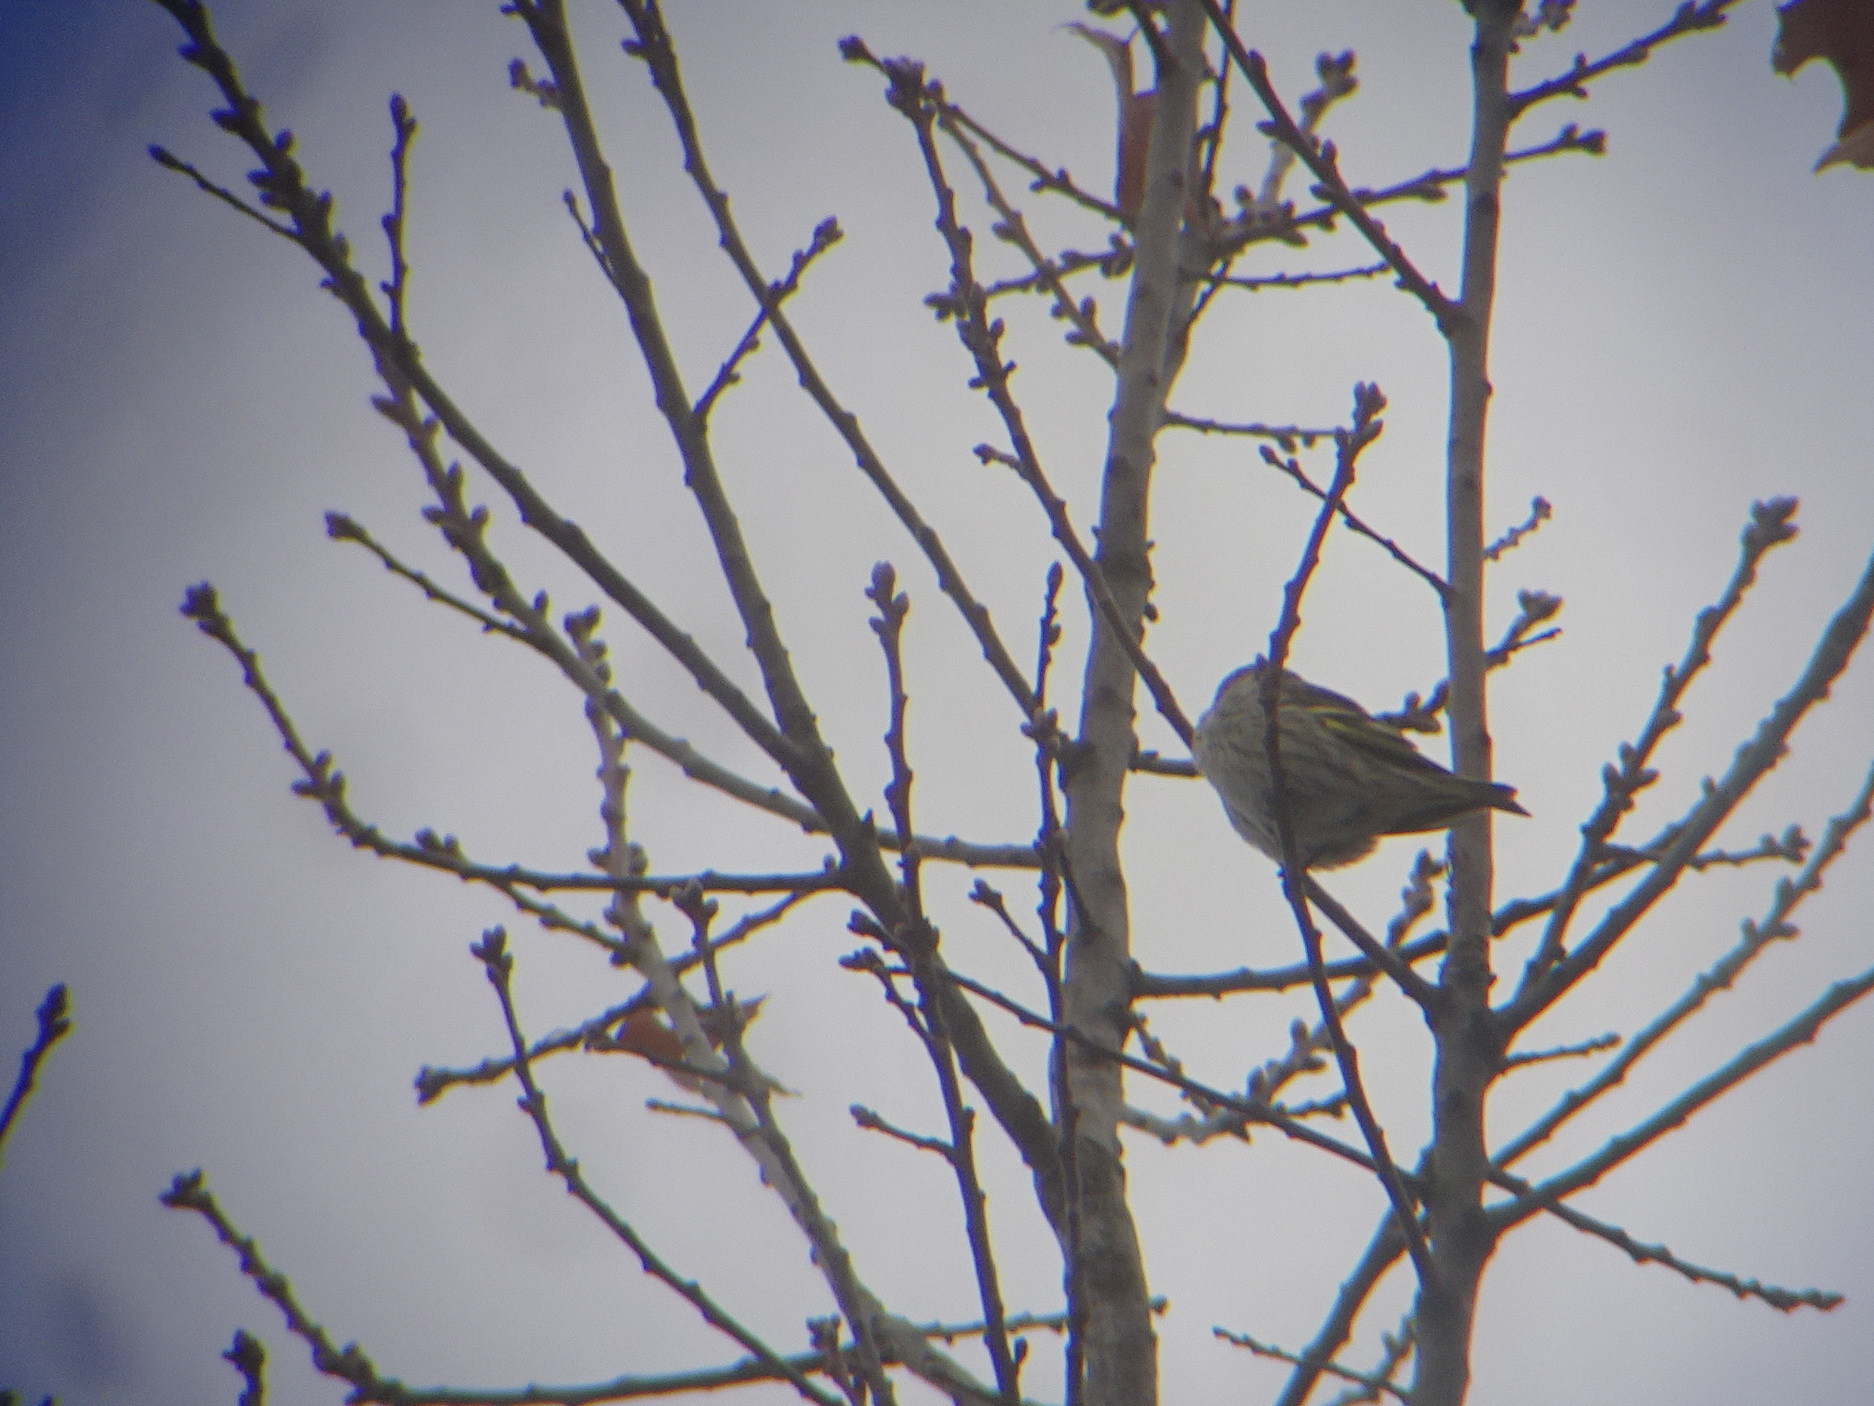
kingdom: Animalia
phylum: Chordata
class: Aves
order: Passeriformes
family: Fringillidae
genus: Spinus
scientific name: Spinus pinus
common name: Pine siskin
